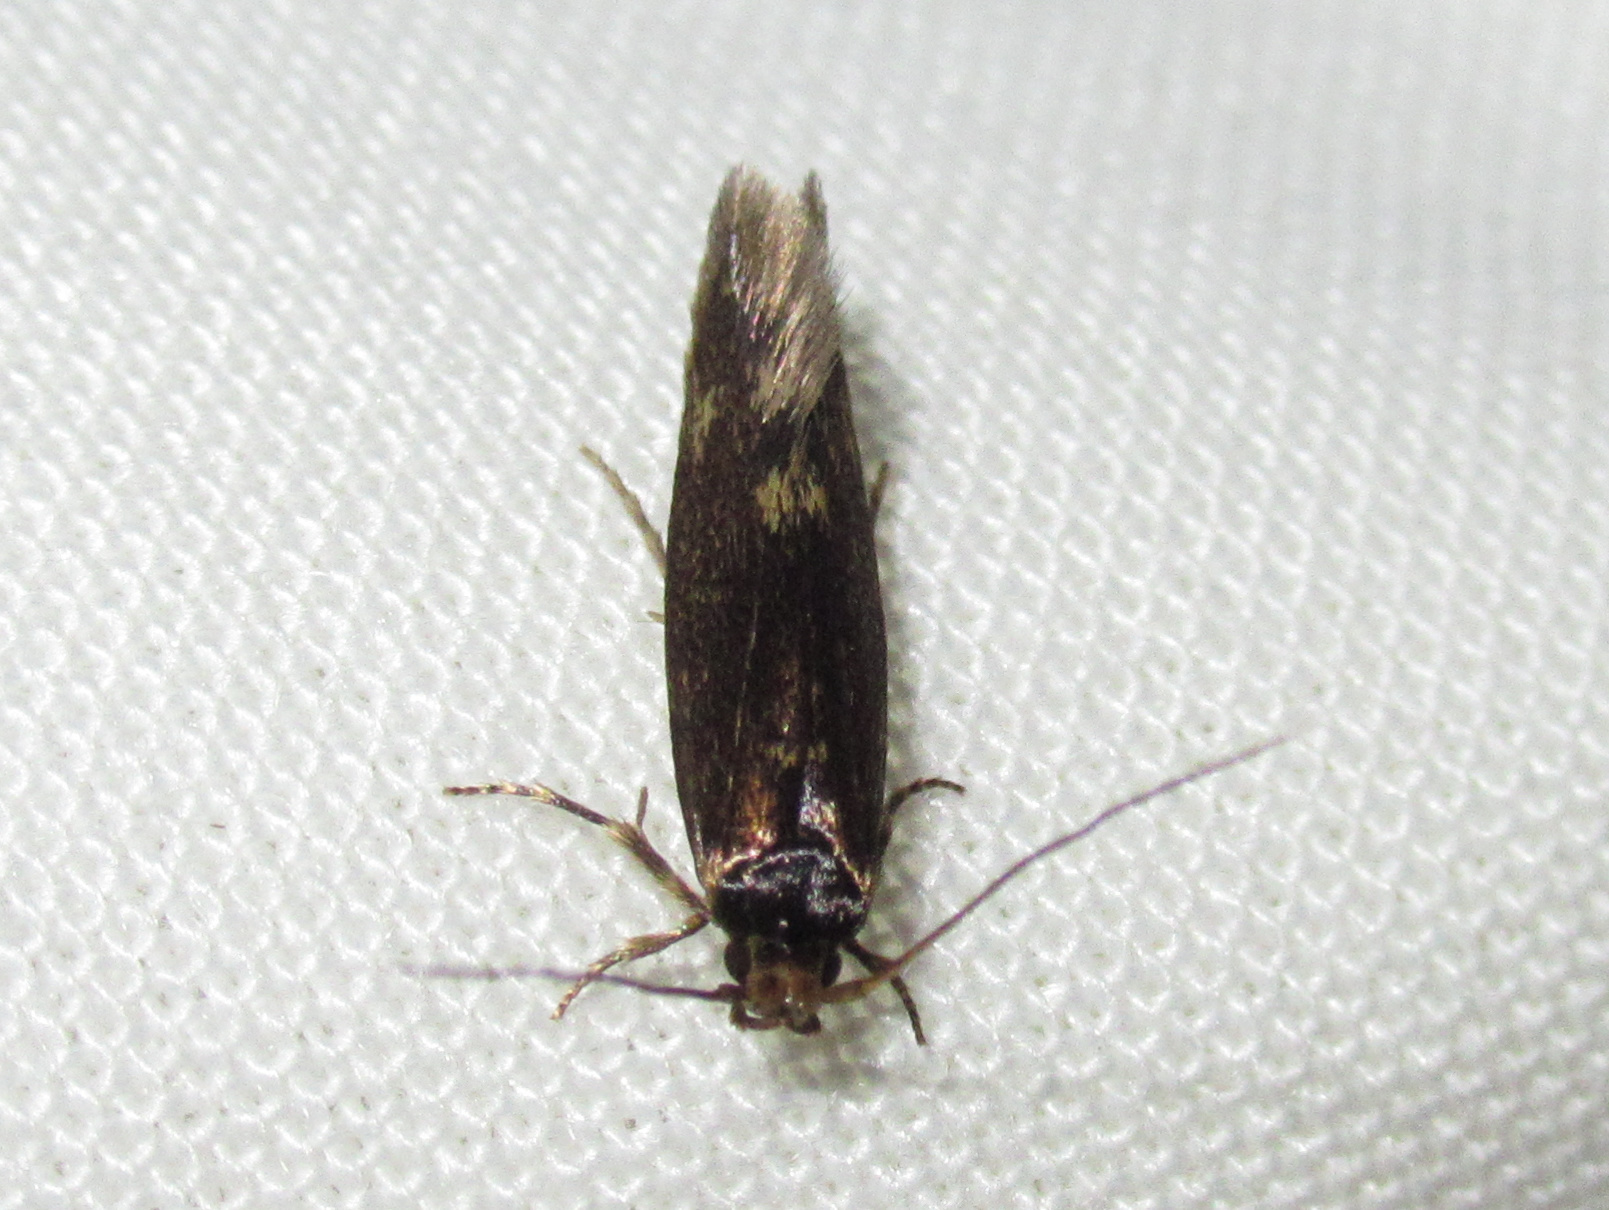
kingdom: Animalia
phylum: Arthropoda
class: Insecta
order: Lepidoptera
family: Tineidae
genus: Opogona
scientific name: Opogona omoscopa
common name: Moth
